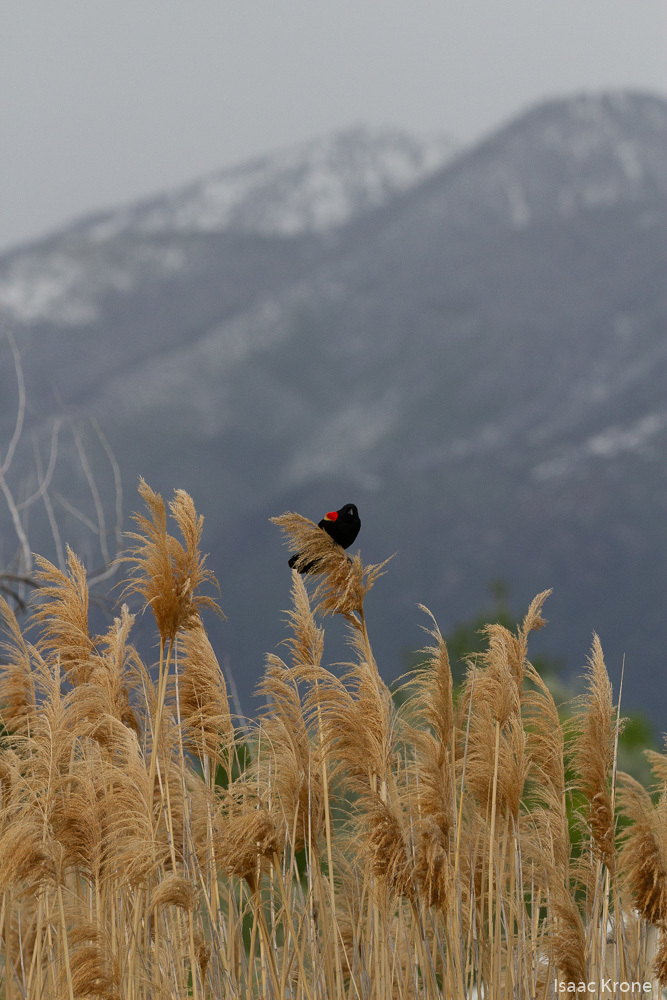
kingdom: Animalia
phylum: Chordata
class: Aves
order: Passeriformes
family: Icteridae
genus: Agelaius
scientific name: Agelaius phoeniceus
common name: Red-winged blackbird
